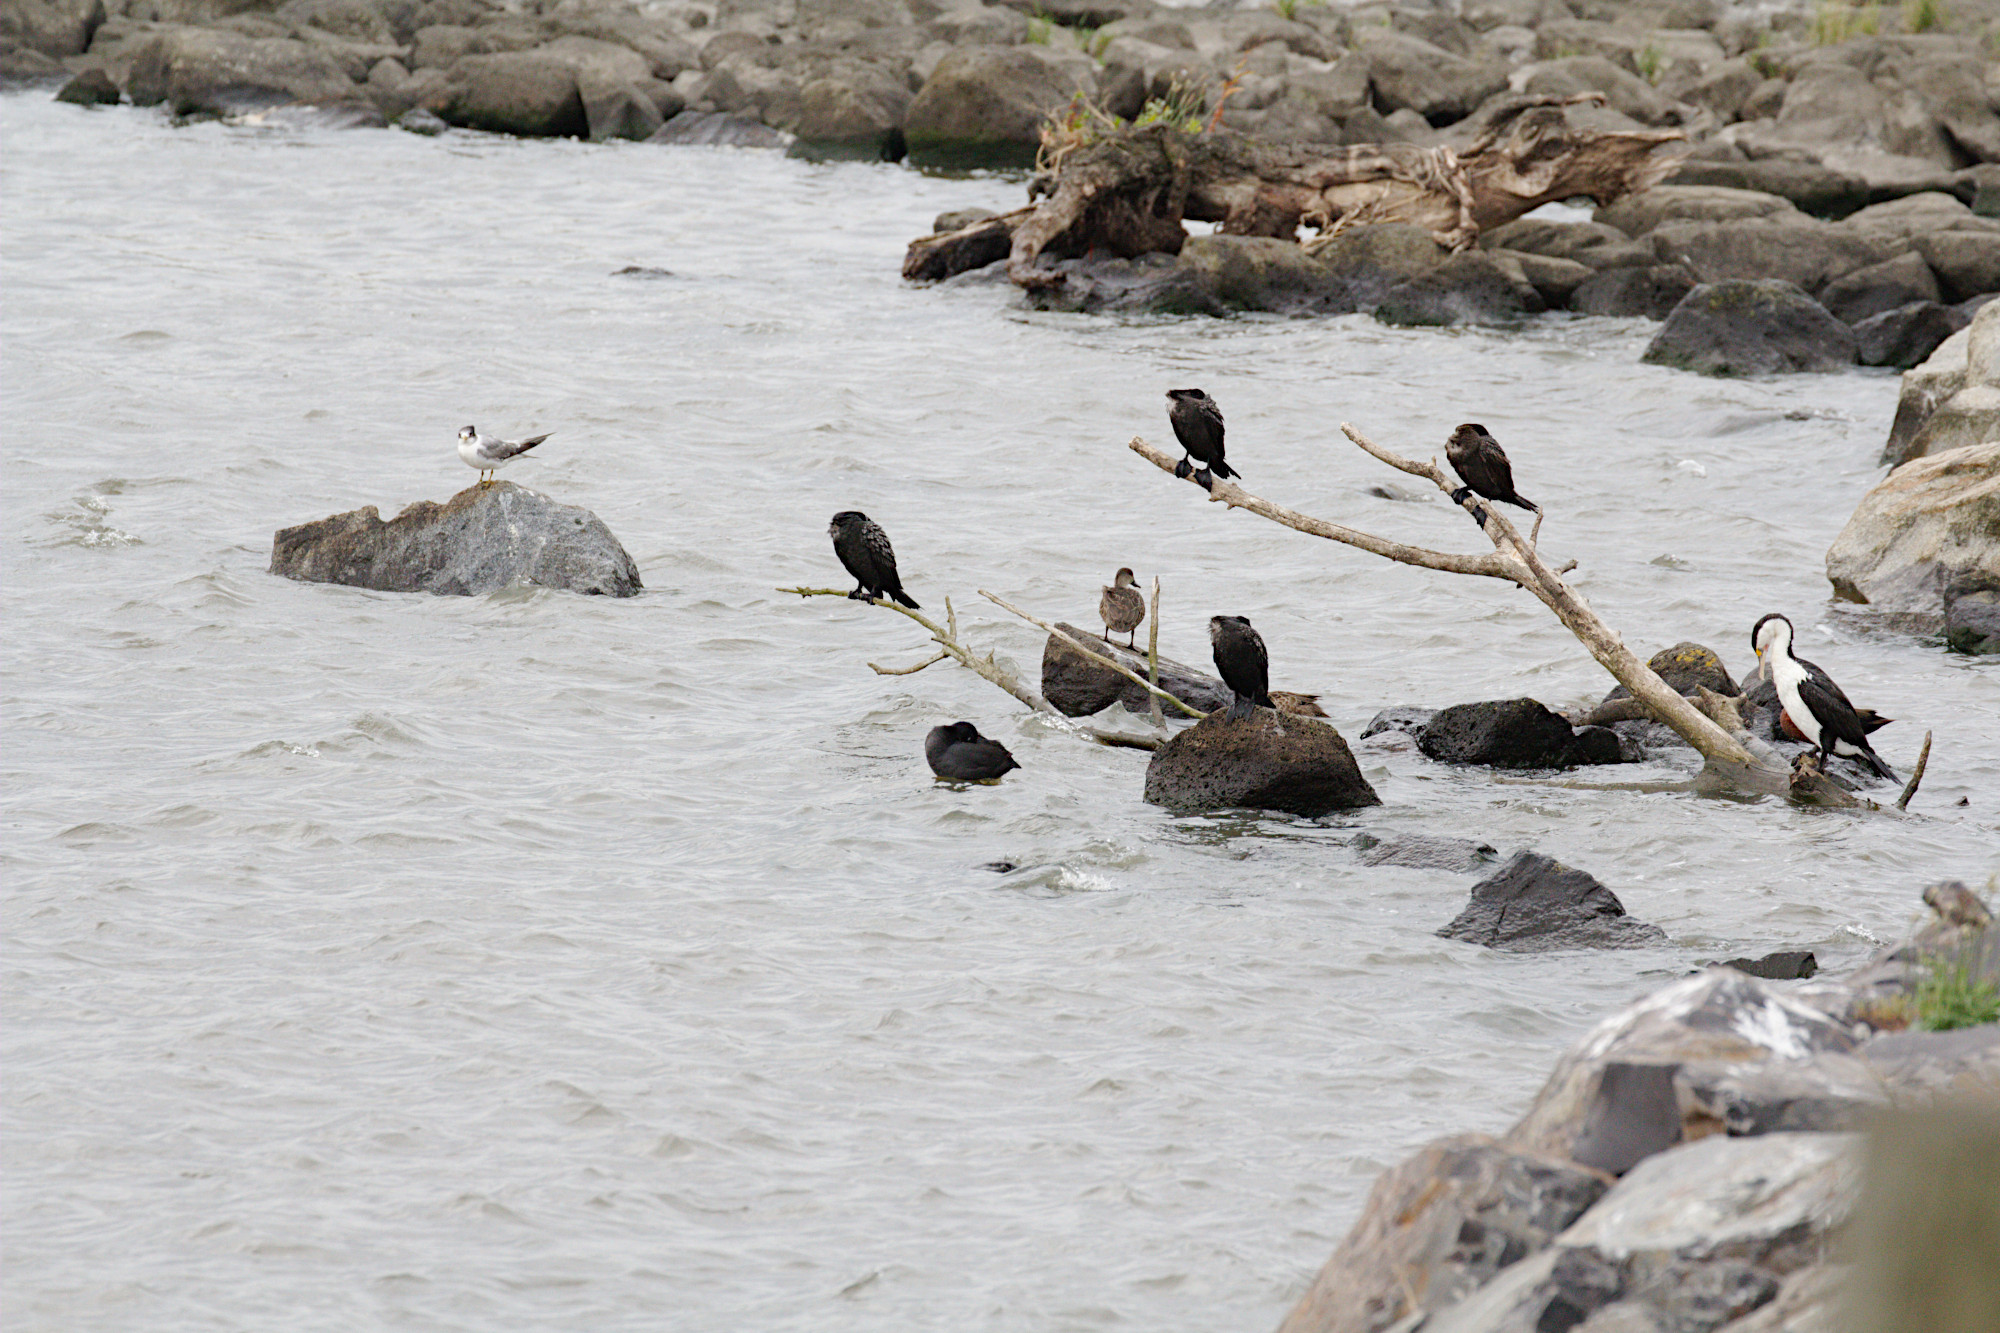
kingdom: Animalia
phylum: Chordata
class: Aves
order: Suliformes
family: Phalacrocoracidae
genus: Phalacrocorax
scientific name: Phalacrocorax varius
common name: Pied cormorant
